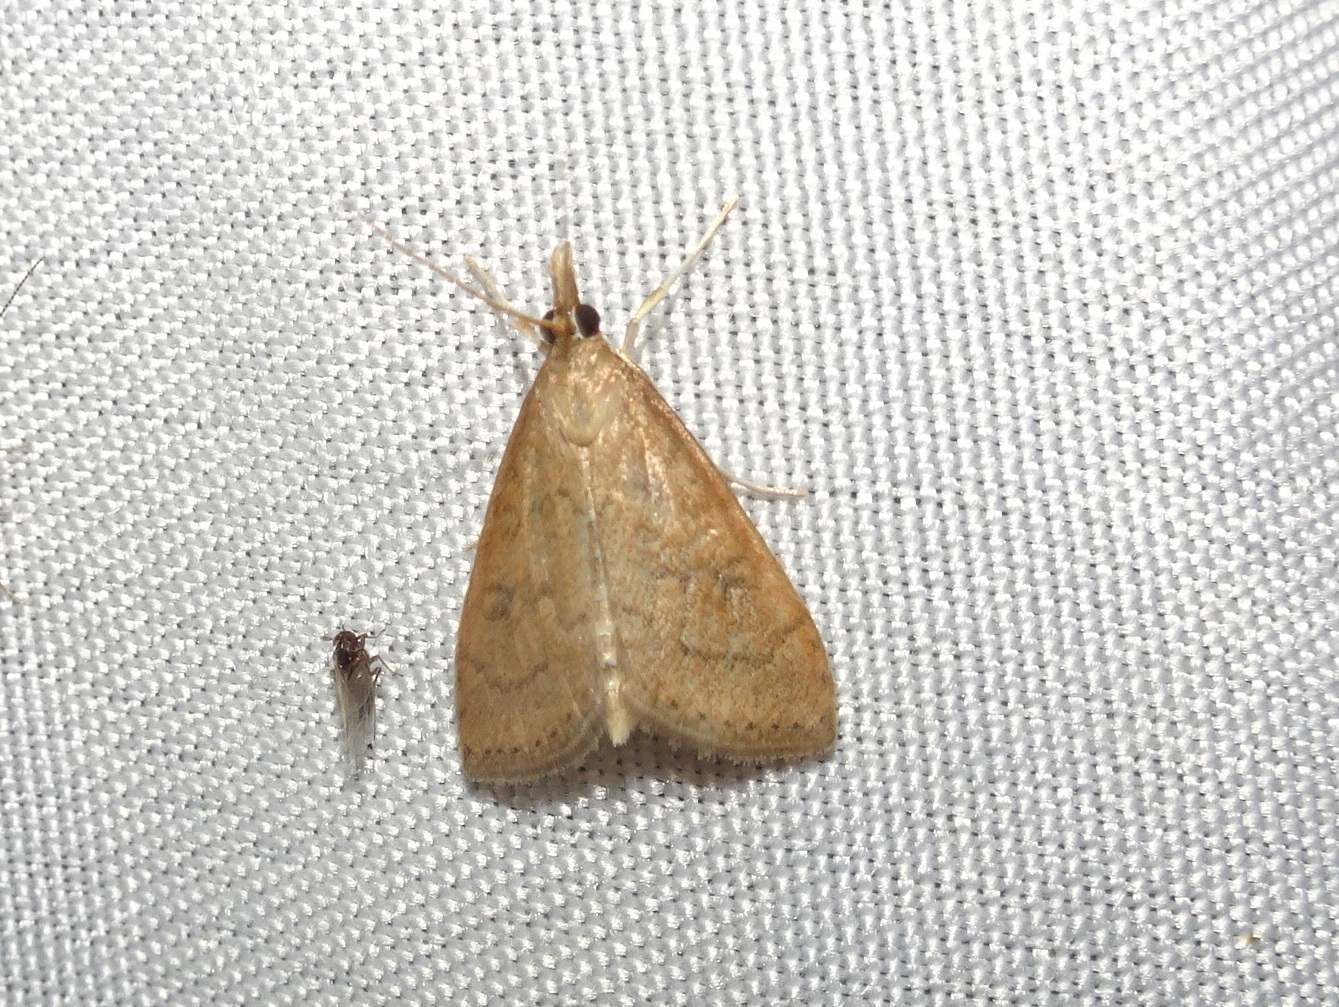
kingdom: Animalia
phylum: Arthropoda
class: Insecta
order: Lepidoptera
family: Crambidae
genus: Udea
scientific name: Udea rubigalis
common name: Celery leaftier moth
